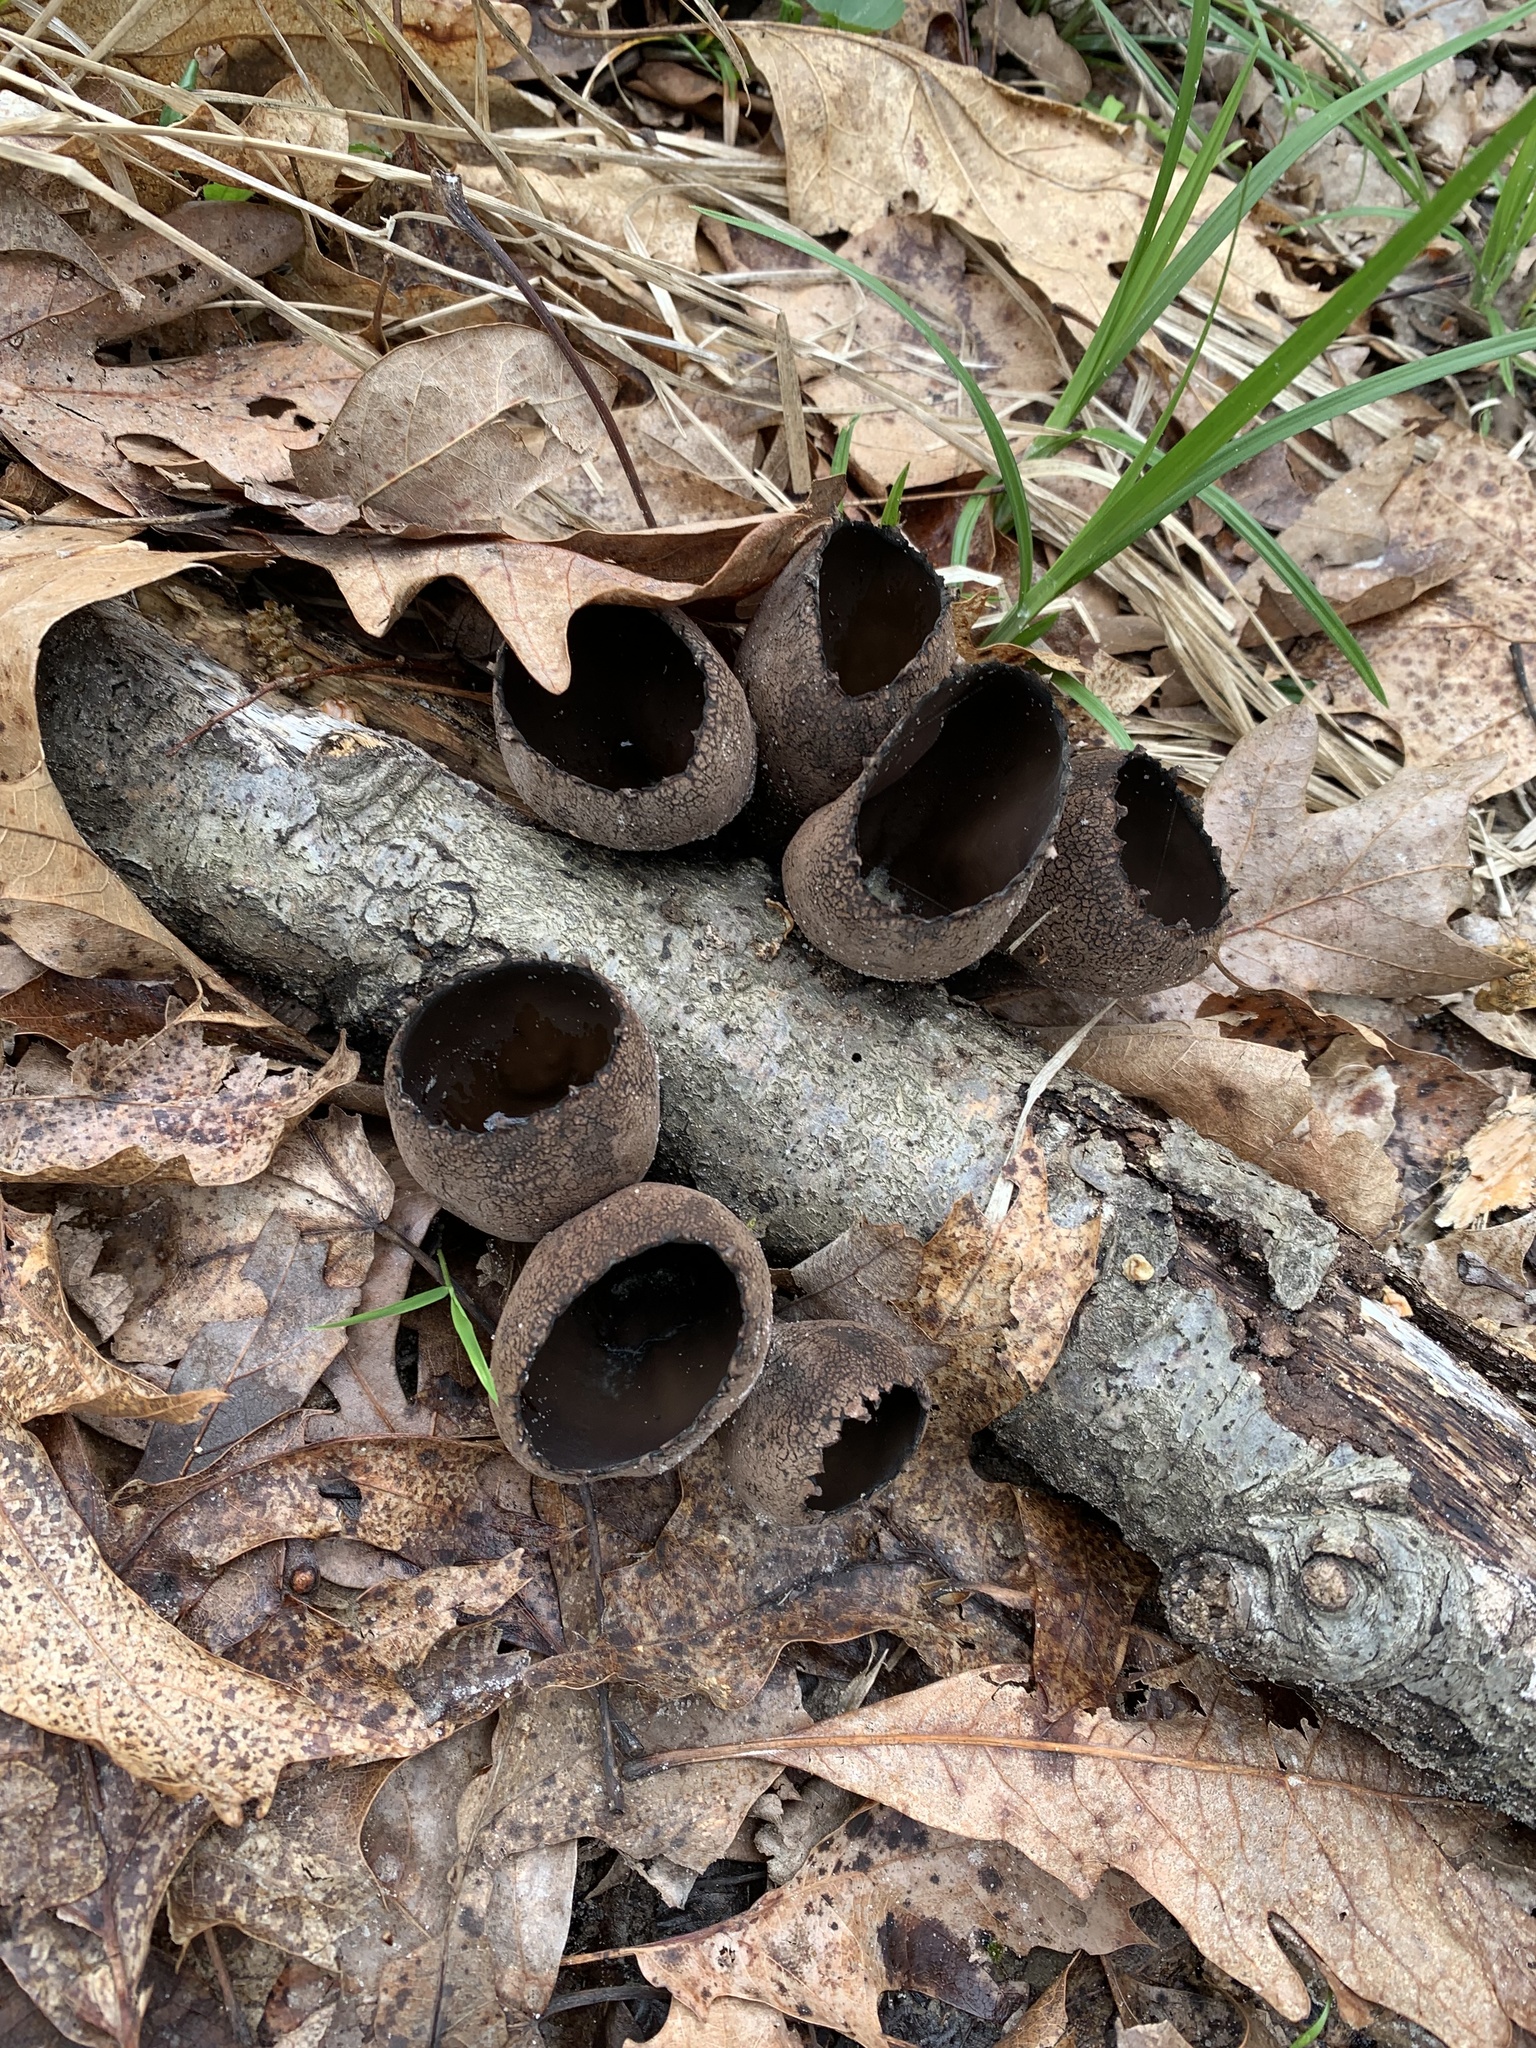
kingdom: Fungi
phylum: Ascomycota
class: Pezizomycetes
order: Pezizales
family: Sarcosomataceae
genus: Urnula
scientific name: Urnula craterium
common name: Devil's urn
